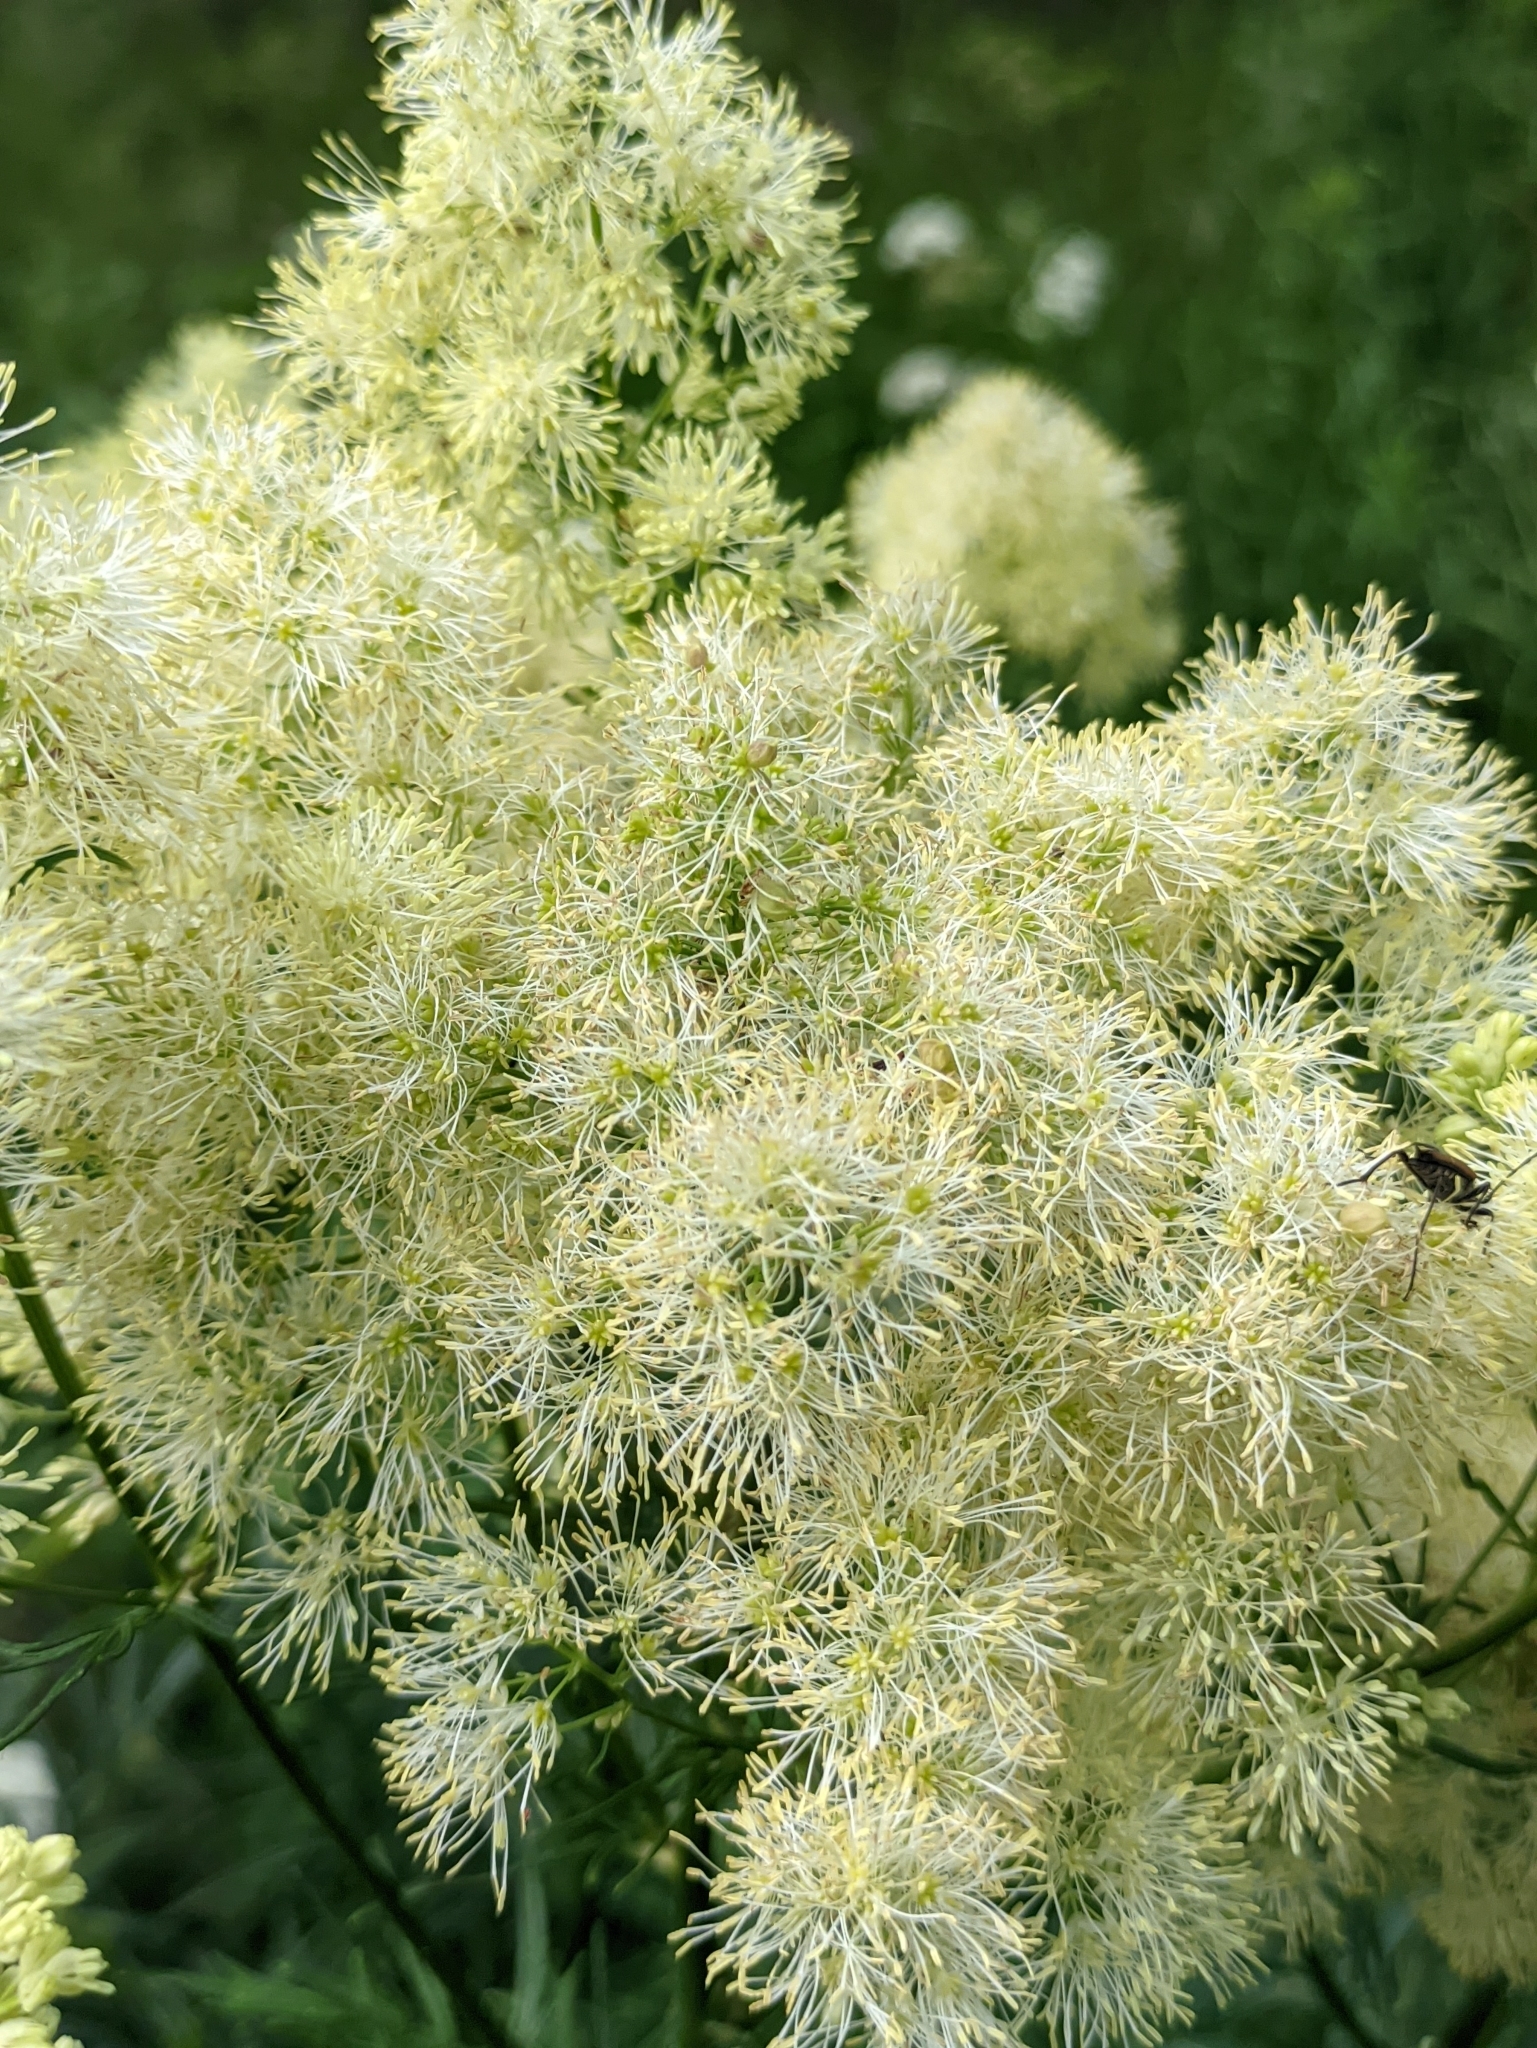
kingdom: Plantae
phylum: Tracheophyta
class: Magnoliopsida
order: Ranunculales
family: Ranunculaceae
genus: Thalictrum
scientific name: Thalictrum lucidum
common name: Shining meadow-rue
